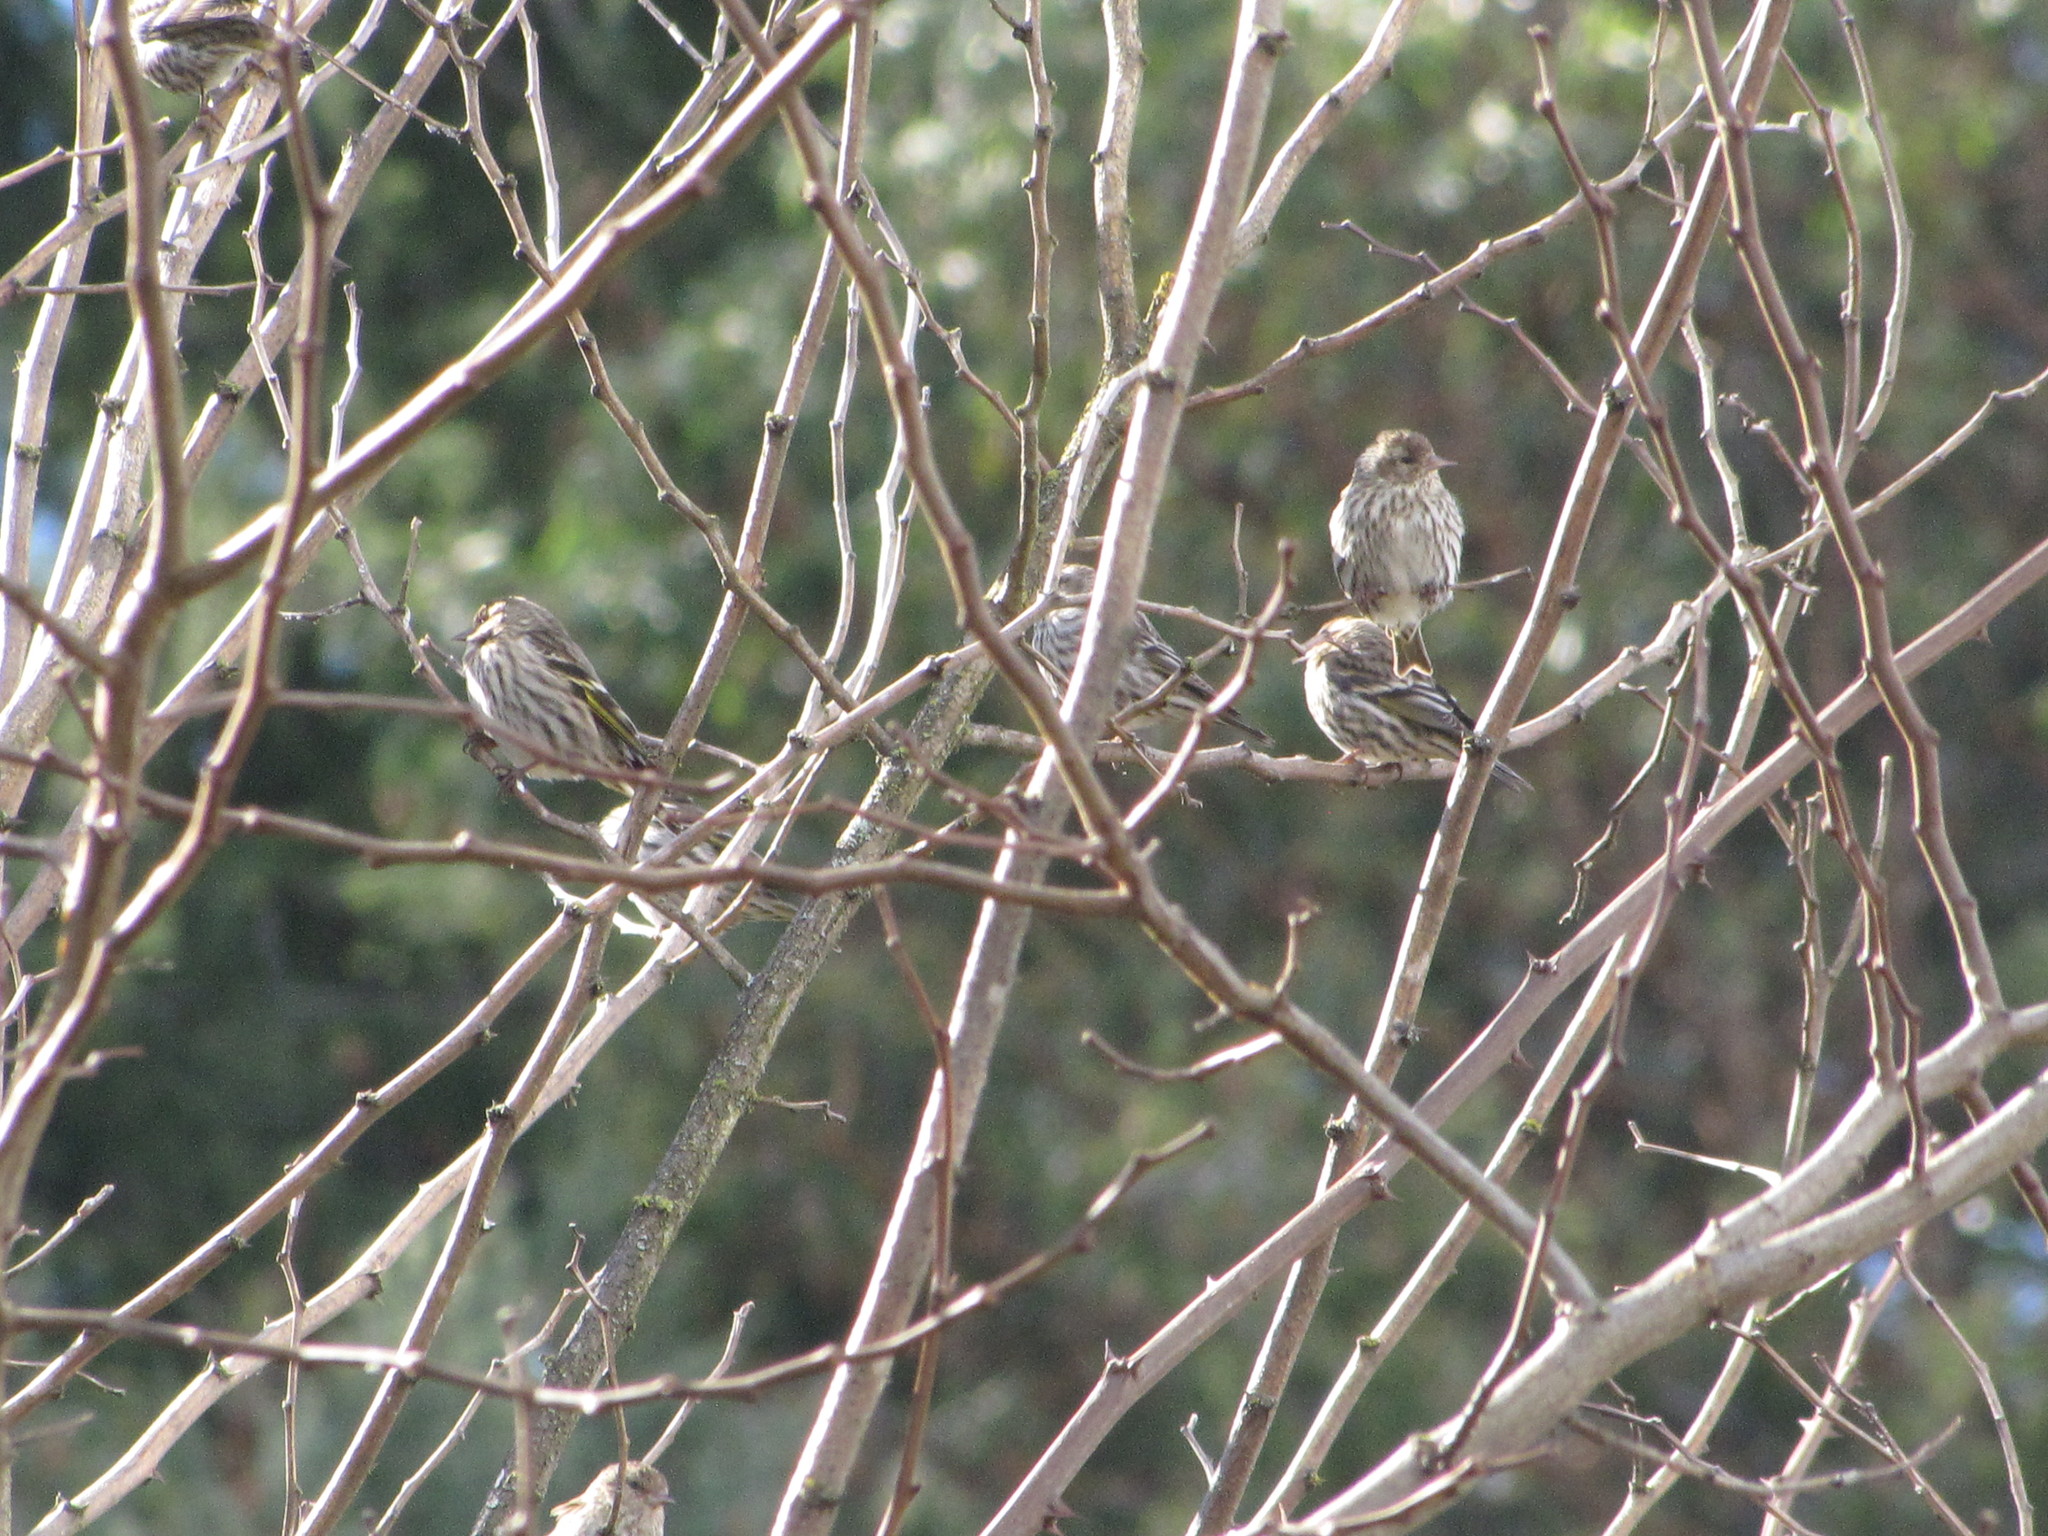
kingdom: Animalia
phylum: Chordata
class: Aves
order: Passeriformes
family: Fringillidae
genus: Spinus
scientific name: Spinus pinus
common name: Pine siskin
